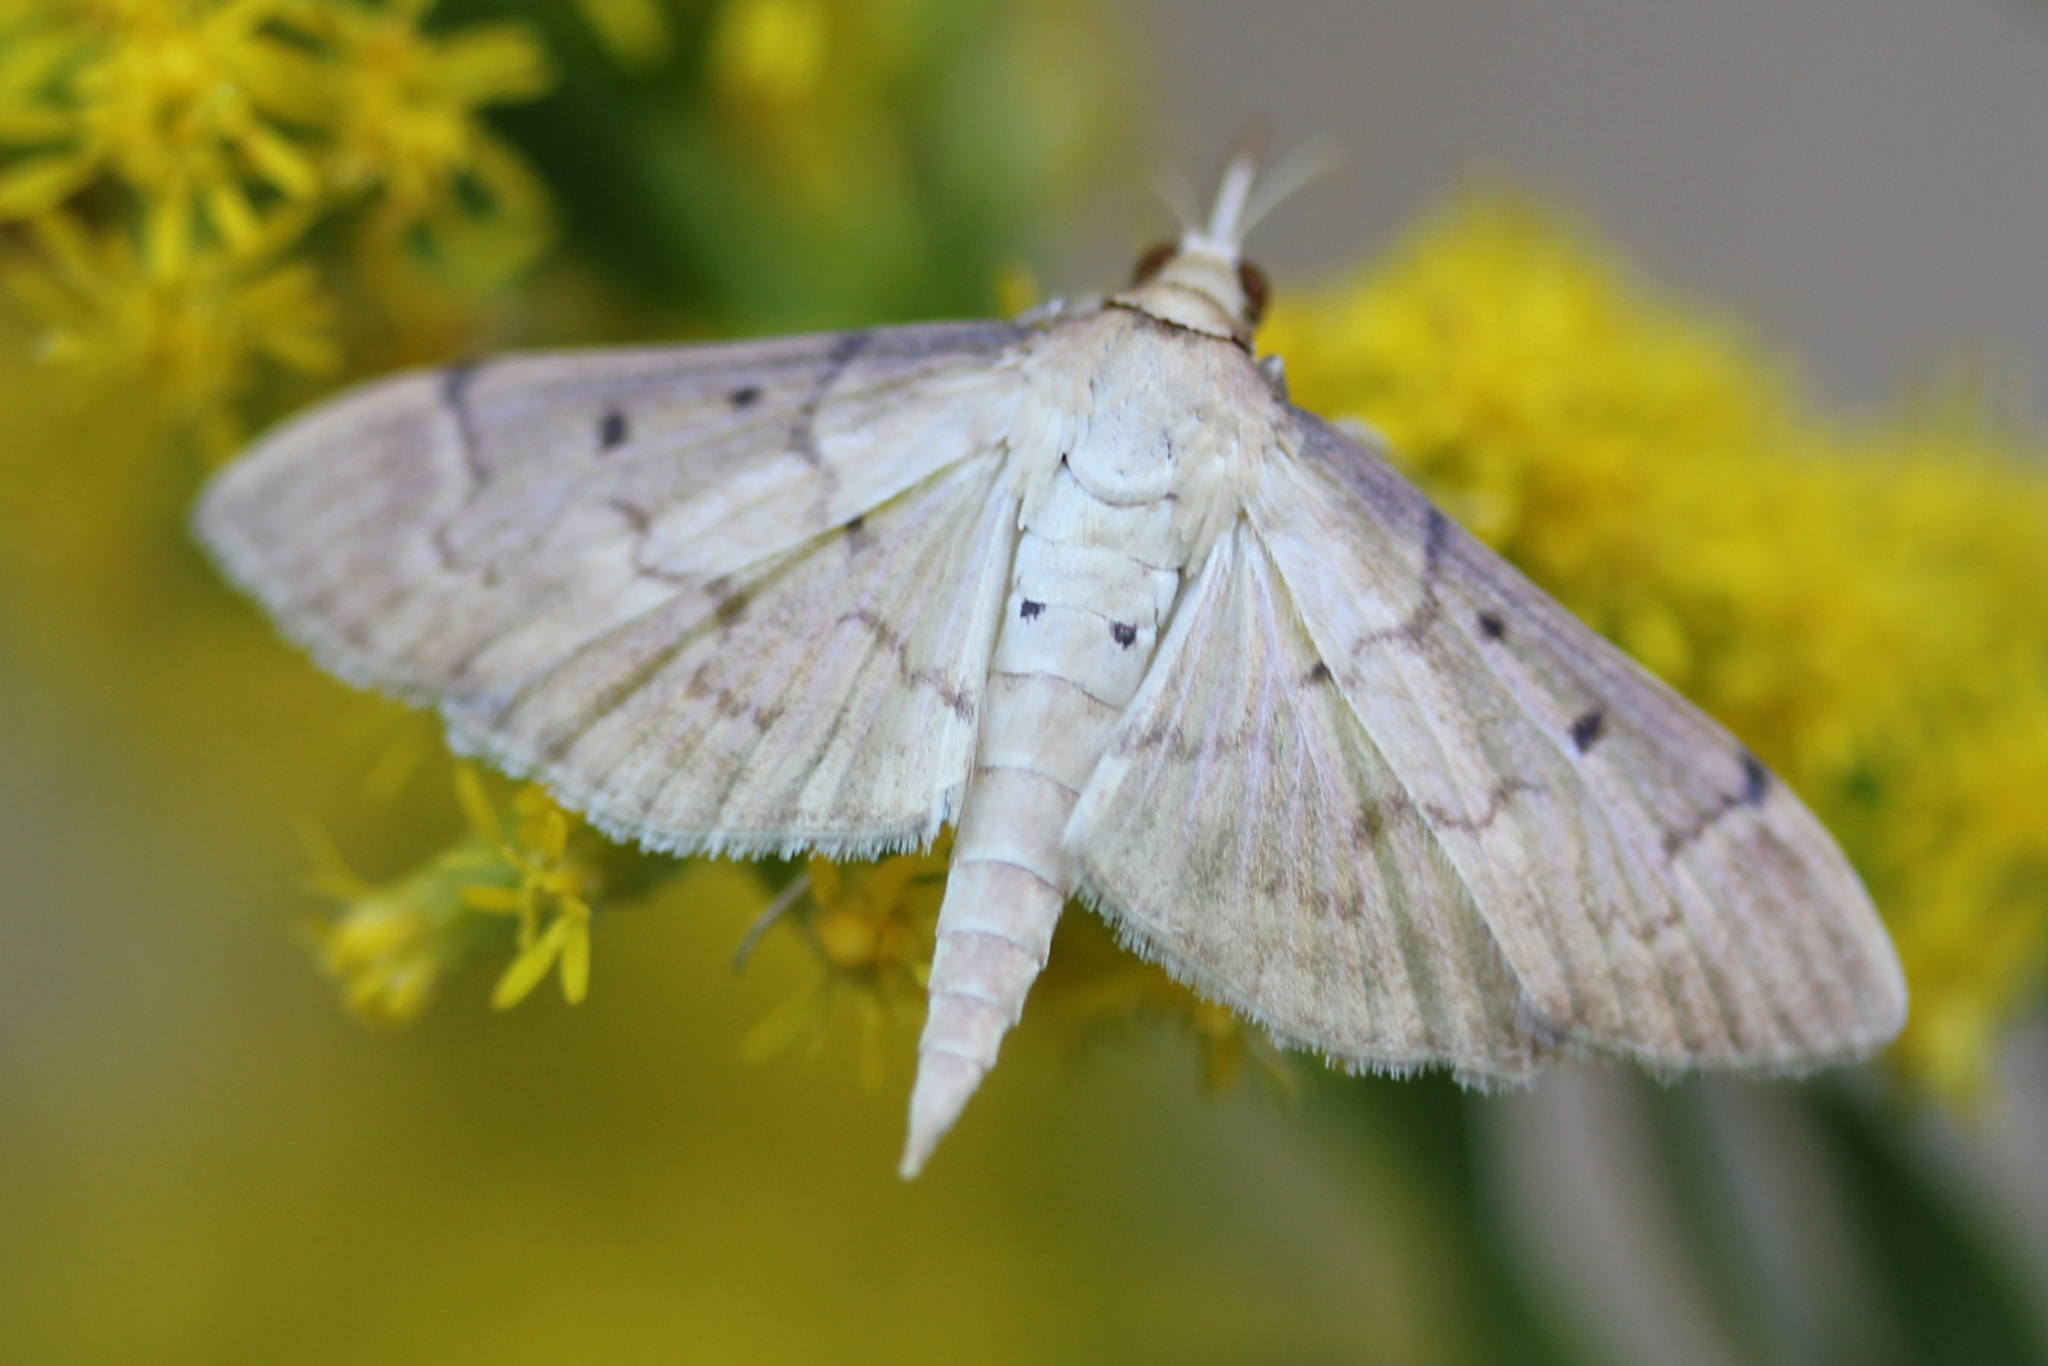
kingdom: Animalia
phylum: Arthropoda
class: Insecta
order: Lepidoptera
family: Crambidae
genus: Herpetogramma
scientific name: Herpetogramma bipunctalis
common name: Southern beet webworm
